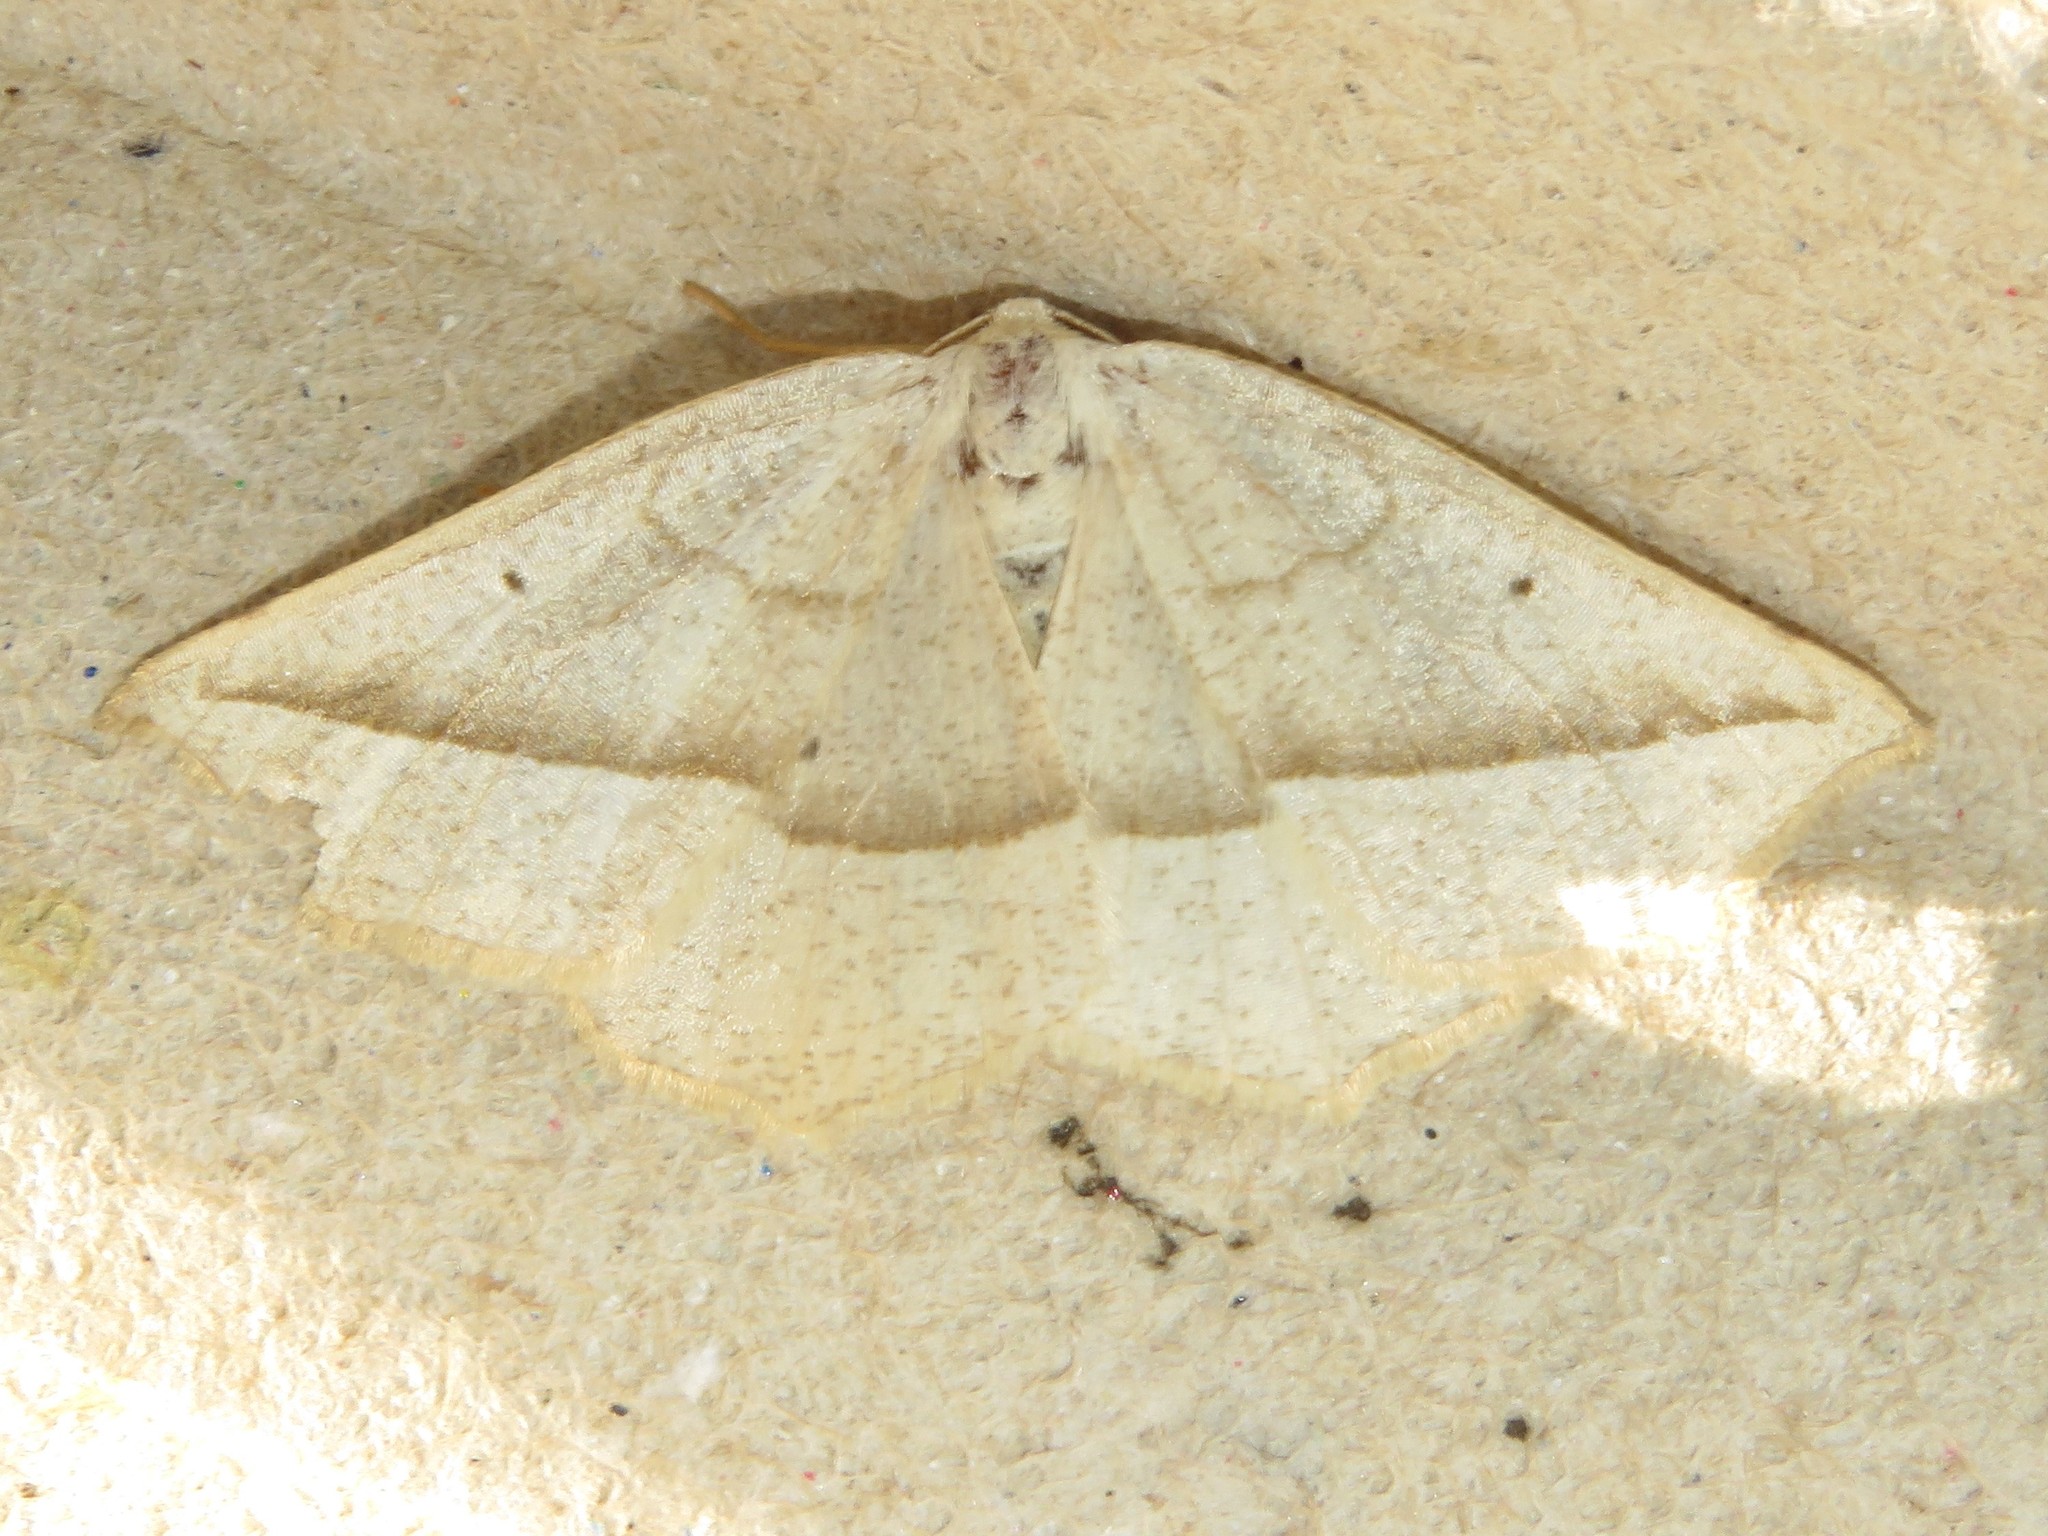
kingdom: Animalia
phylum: Arthropoda
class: Insecta
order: Lepidoptera
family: Geometridae
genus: Eusarca
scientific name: Eusarca confusaria
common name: Confused eusarca
